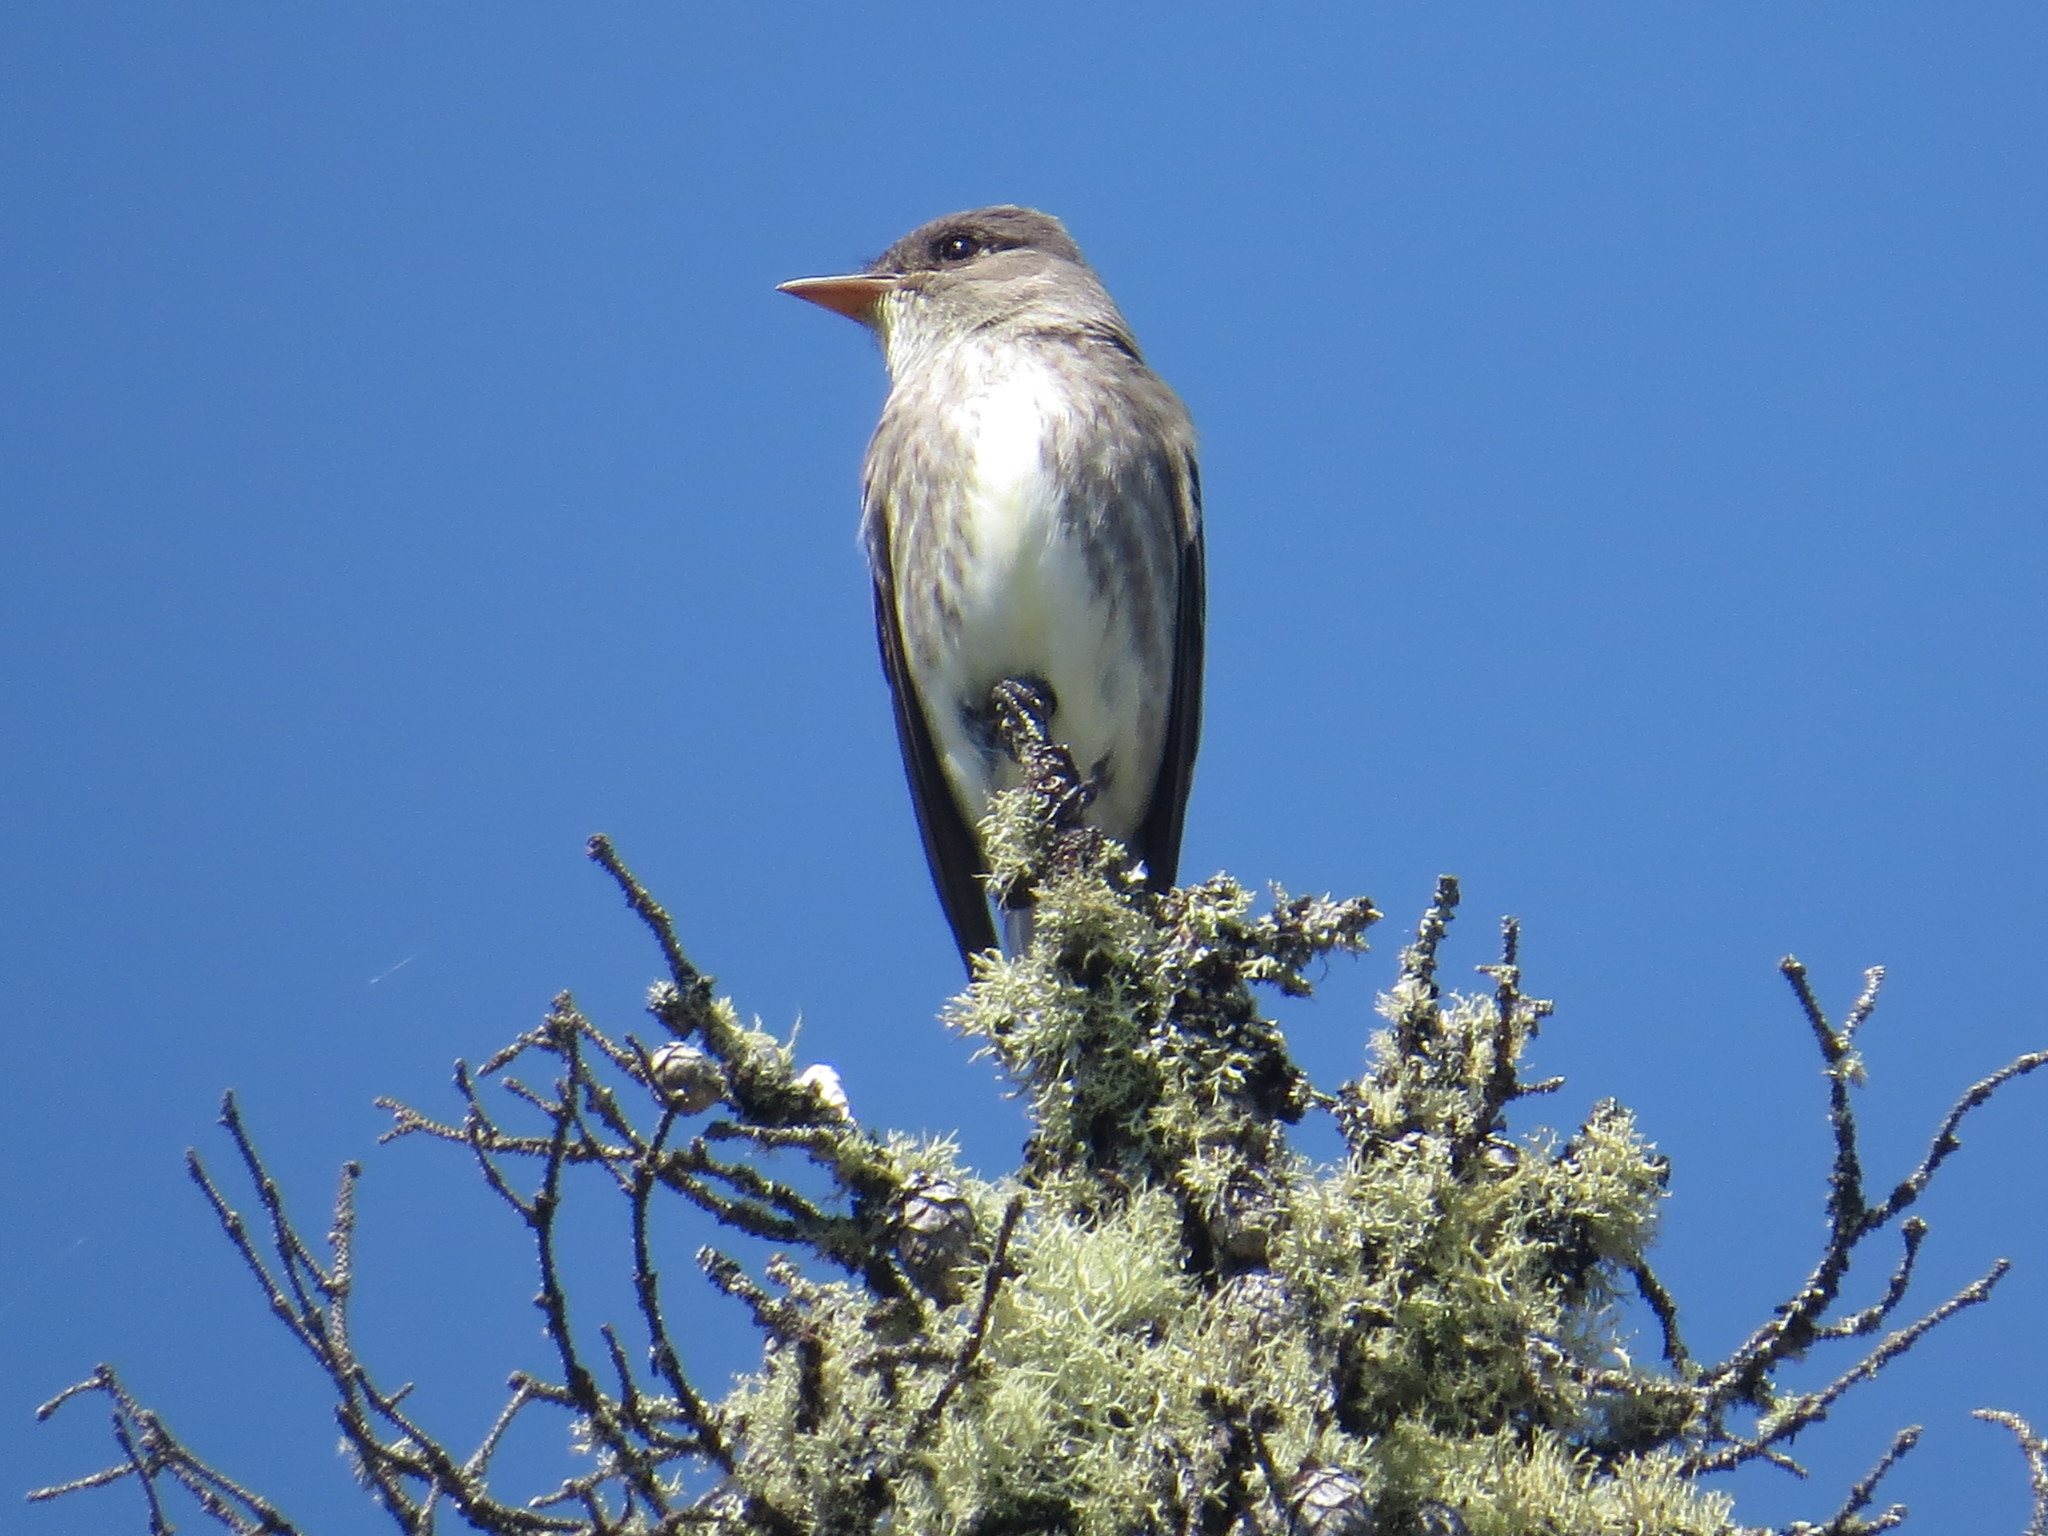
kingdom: Animalia
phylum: Chordata
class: Aves
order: Passeriformes
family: Tyrannidae
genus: Contopus
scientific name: Contopus cooperi
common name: Olive-sided flycatcher
